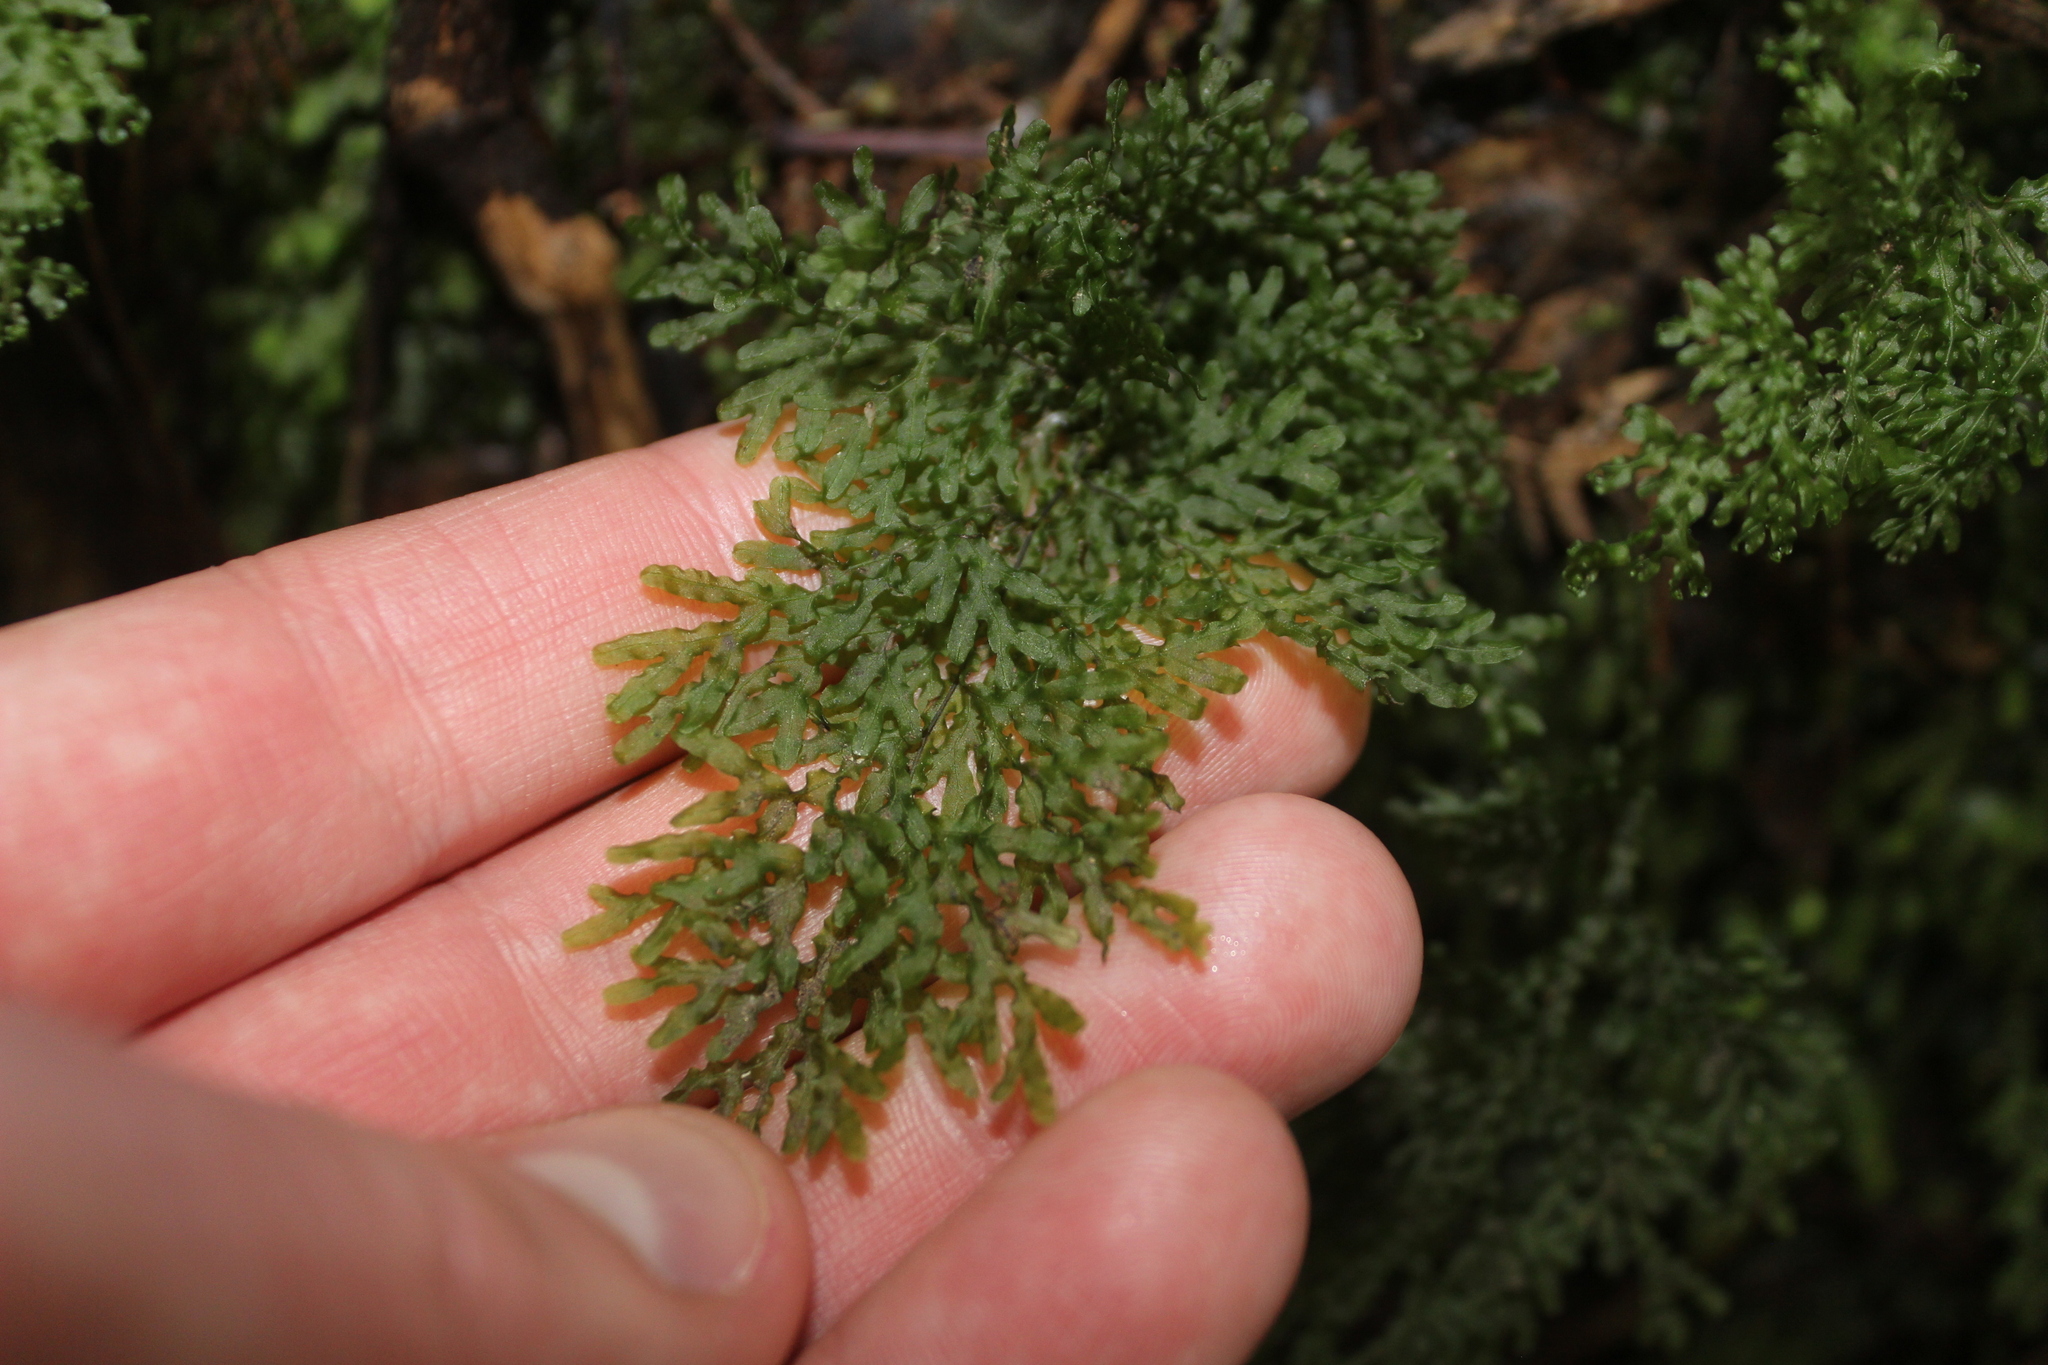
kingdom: Plantae
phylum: Tracheophyta
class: Polypodiopsida
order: Hymenophyllales
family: Hymenophyllaceae
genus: Hymenophyllum
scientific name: Hymenophyllum flexuosum
